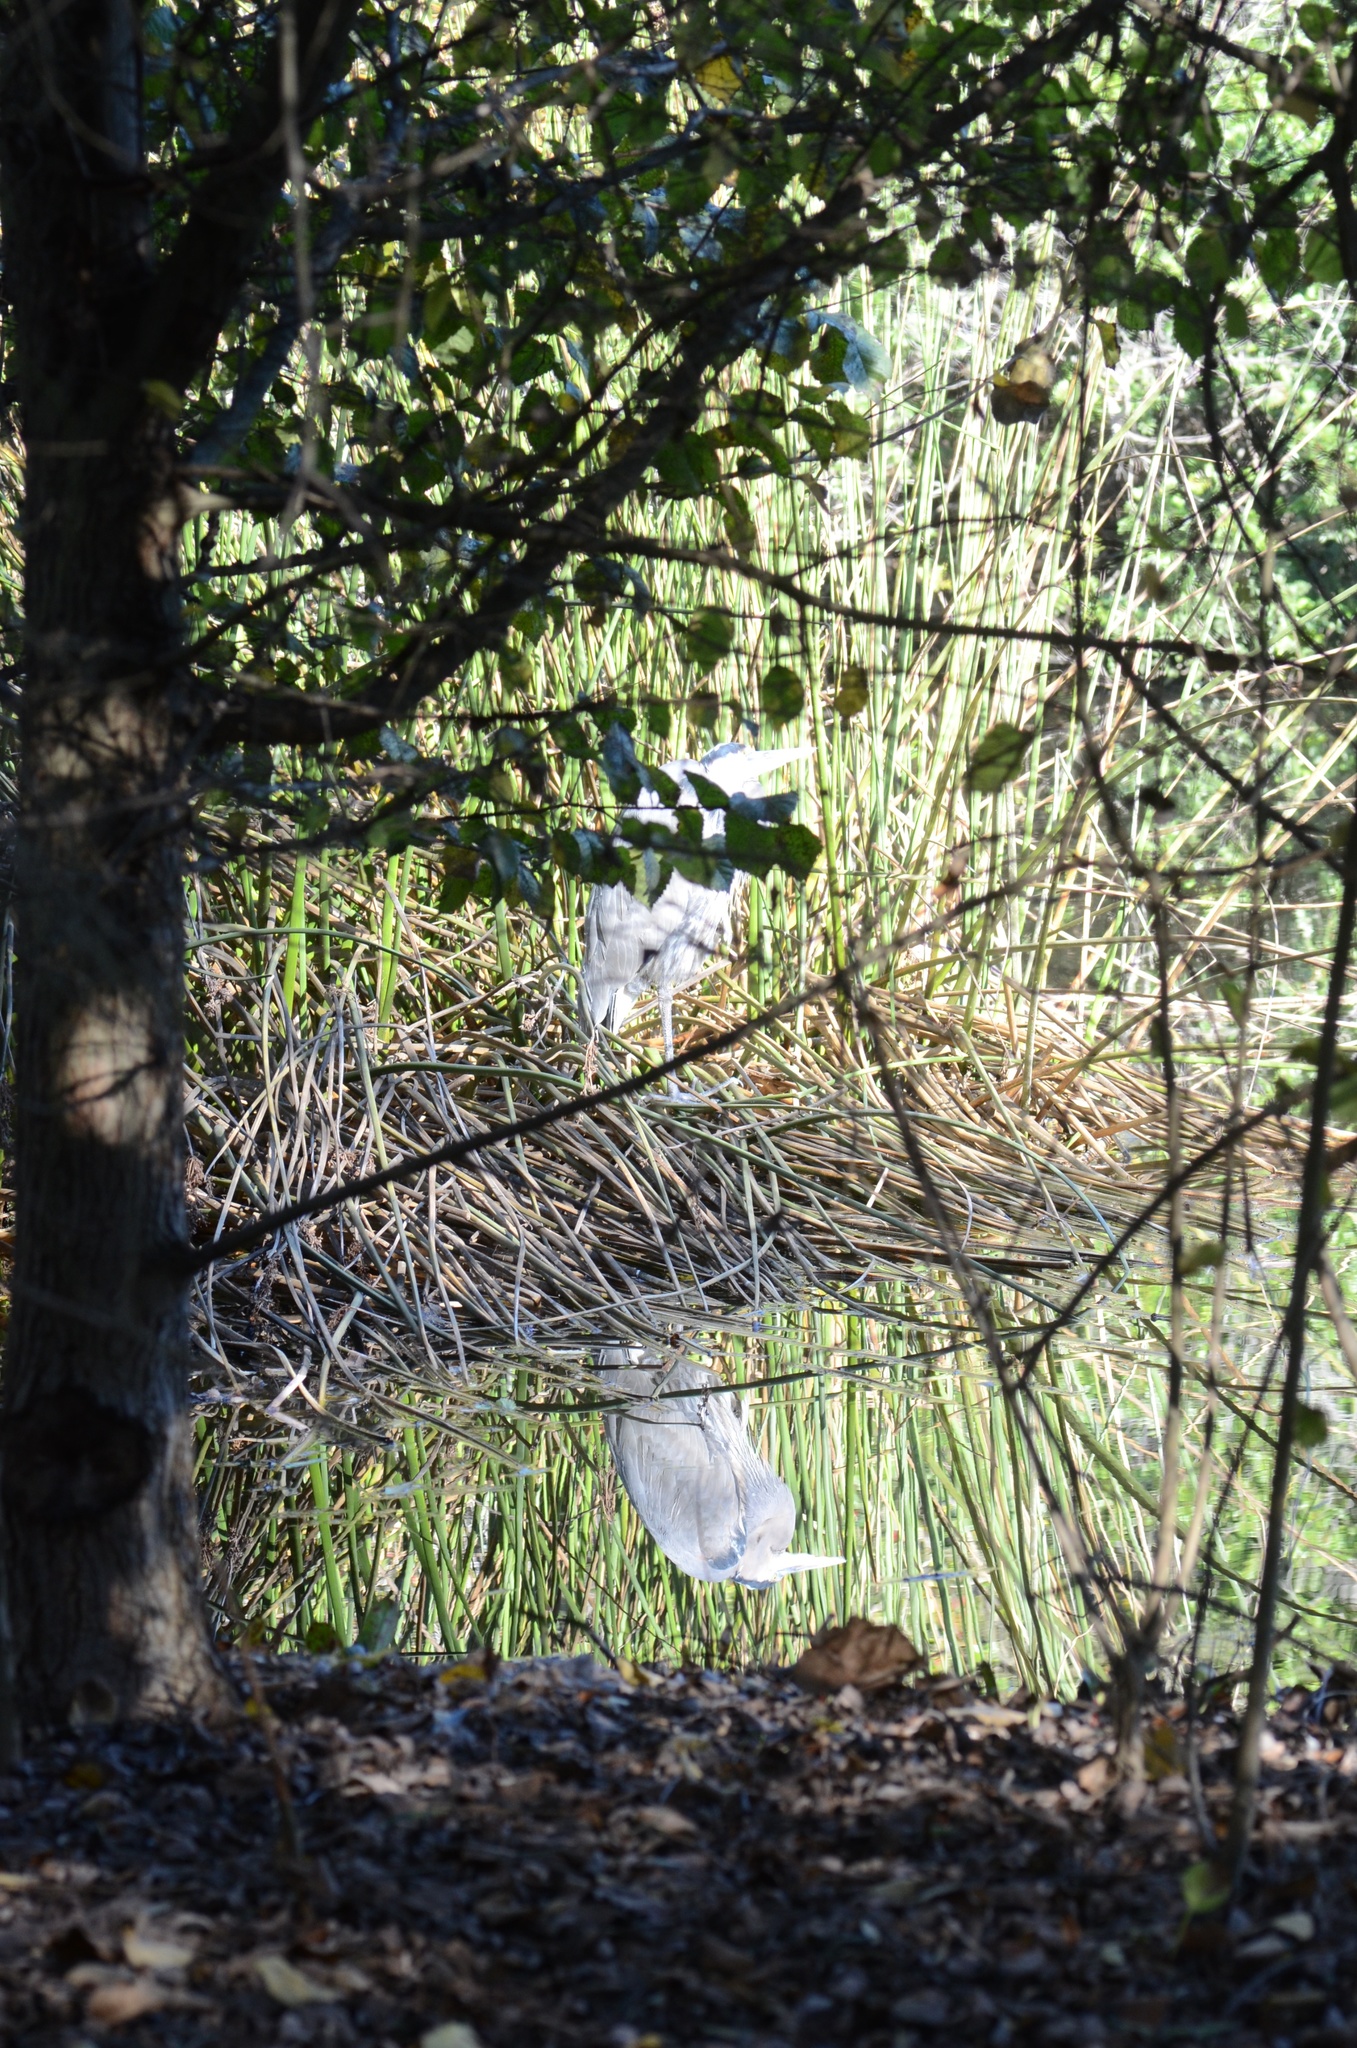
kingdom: Animalia
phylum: Chordata
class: Aves
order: Pelecaniformes
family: Ardeidae
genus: Ardea
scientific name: Ardea herodias
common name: Great blue heron
